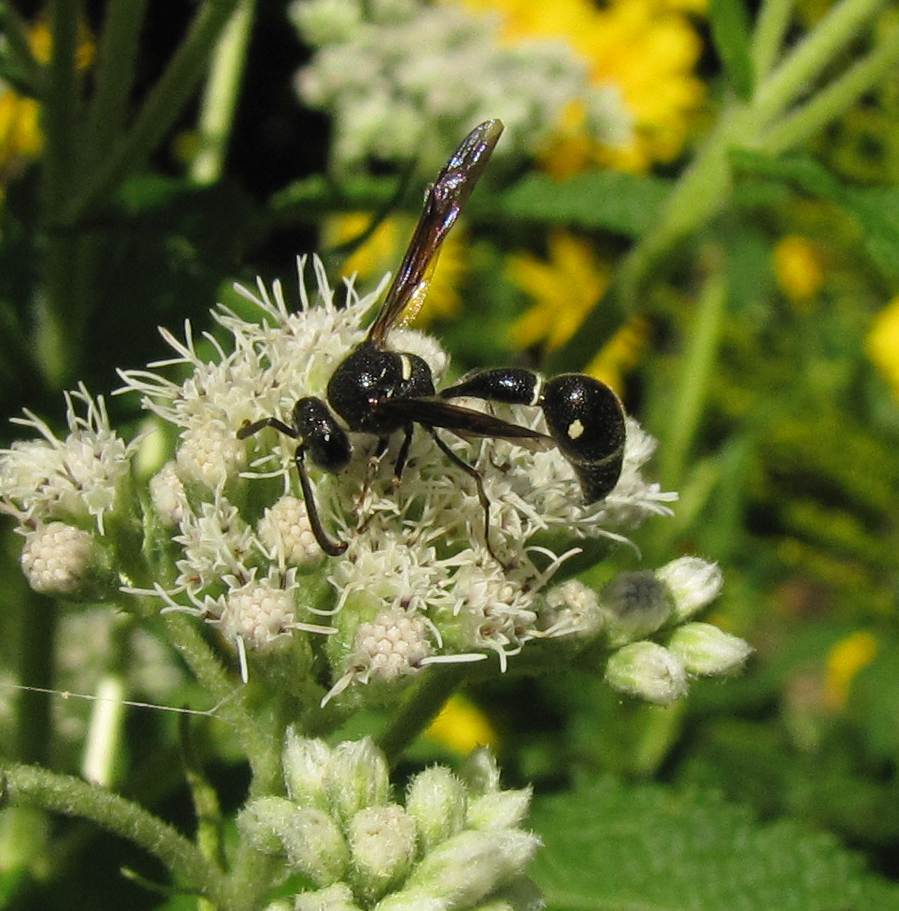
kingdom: Animalia
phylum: Arthropoda
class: Insecta
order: Hymenoptera
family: Vespidae
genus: Eumenes
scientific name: Eumenes fraternus
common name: Fraternal potter wasp
